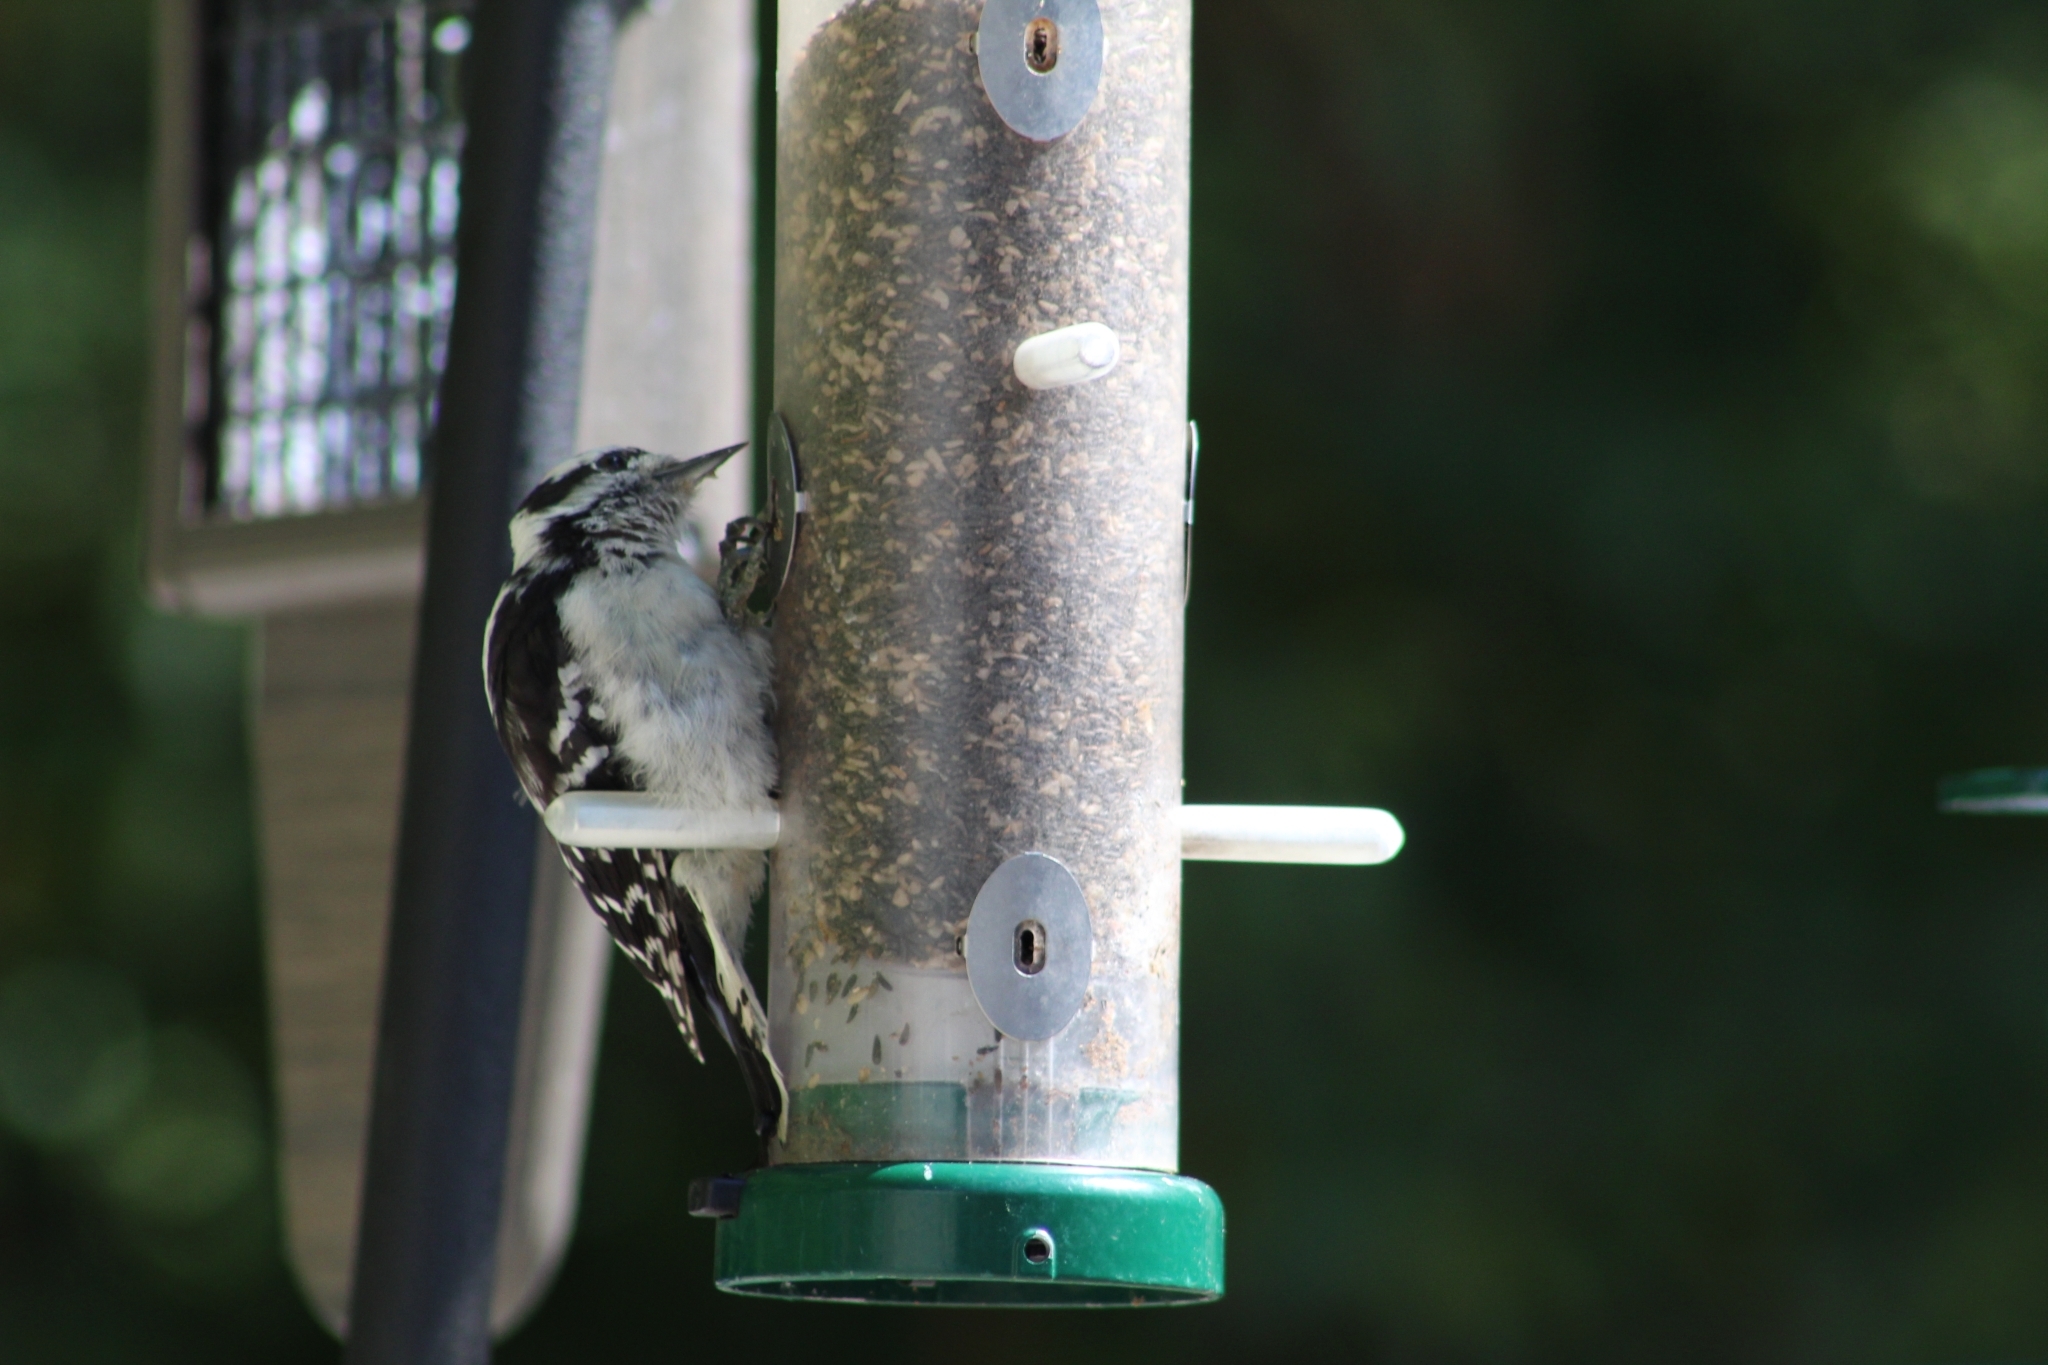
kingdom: Animalia
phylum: Chordata
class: Aves
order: Piciformes
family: Picidae
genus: Dryobates
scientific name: Dryobates pubescens
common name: Downy woodpecker
